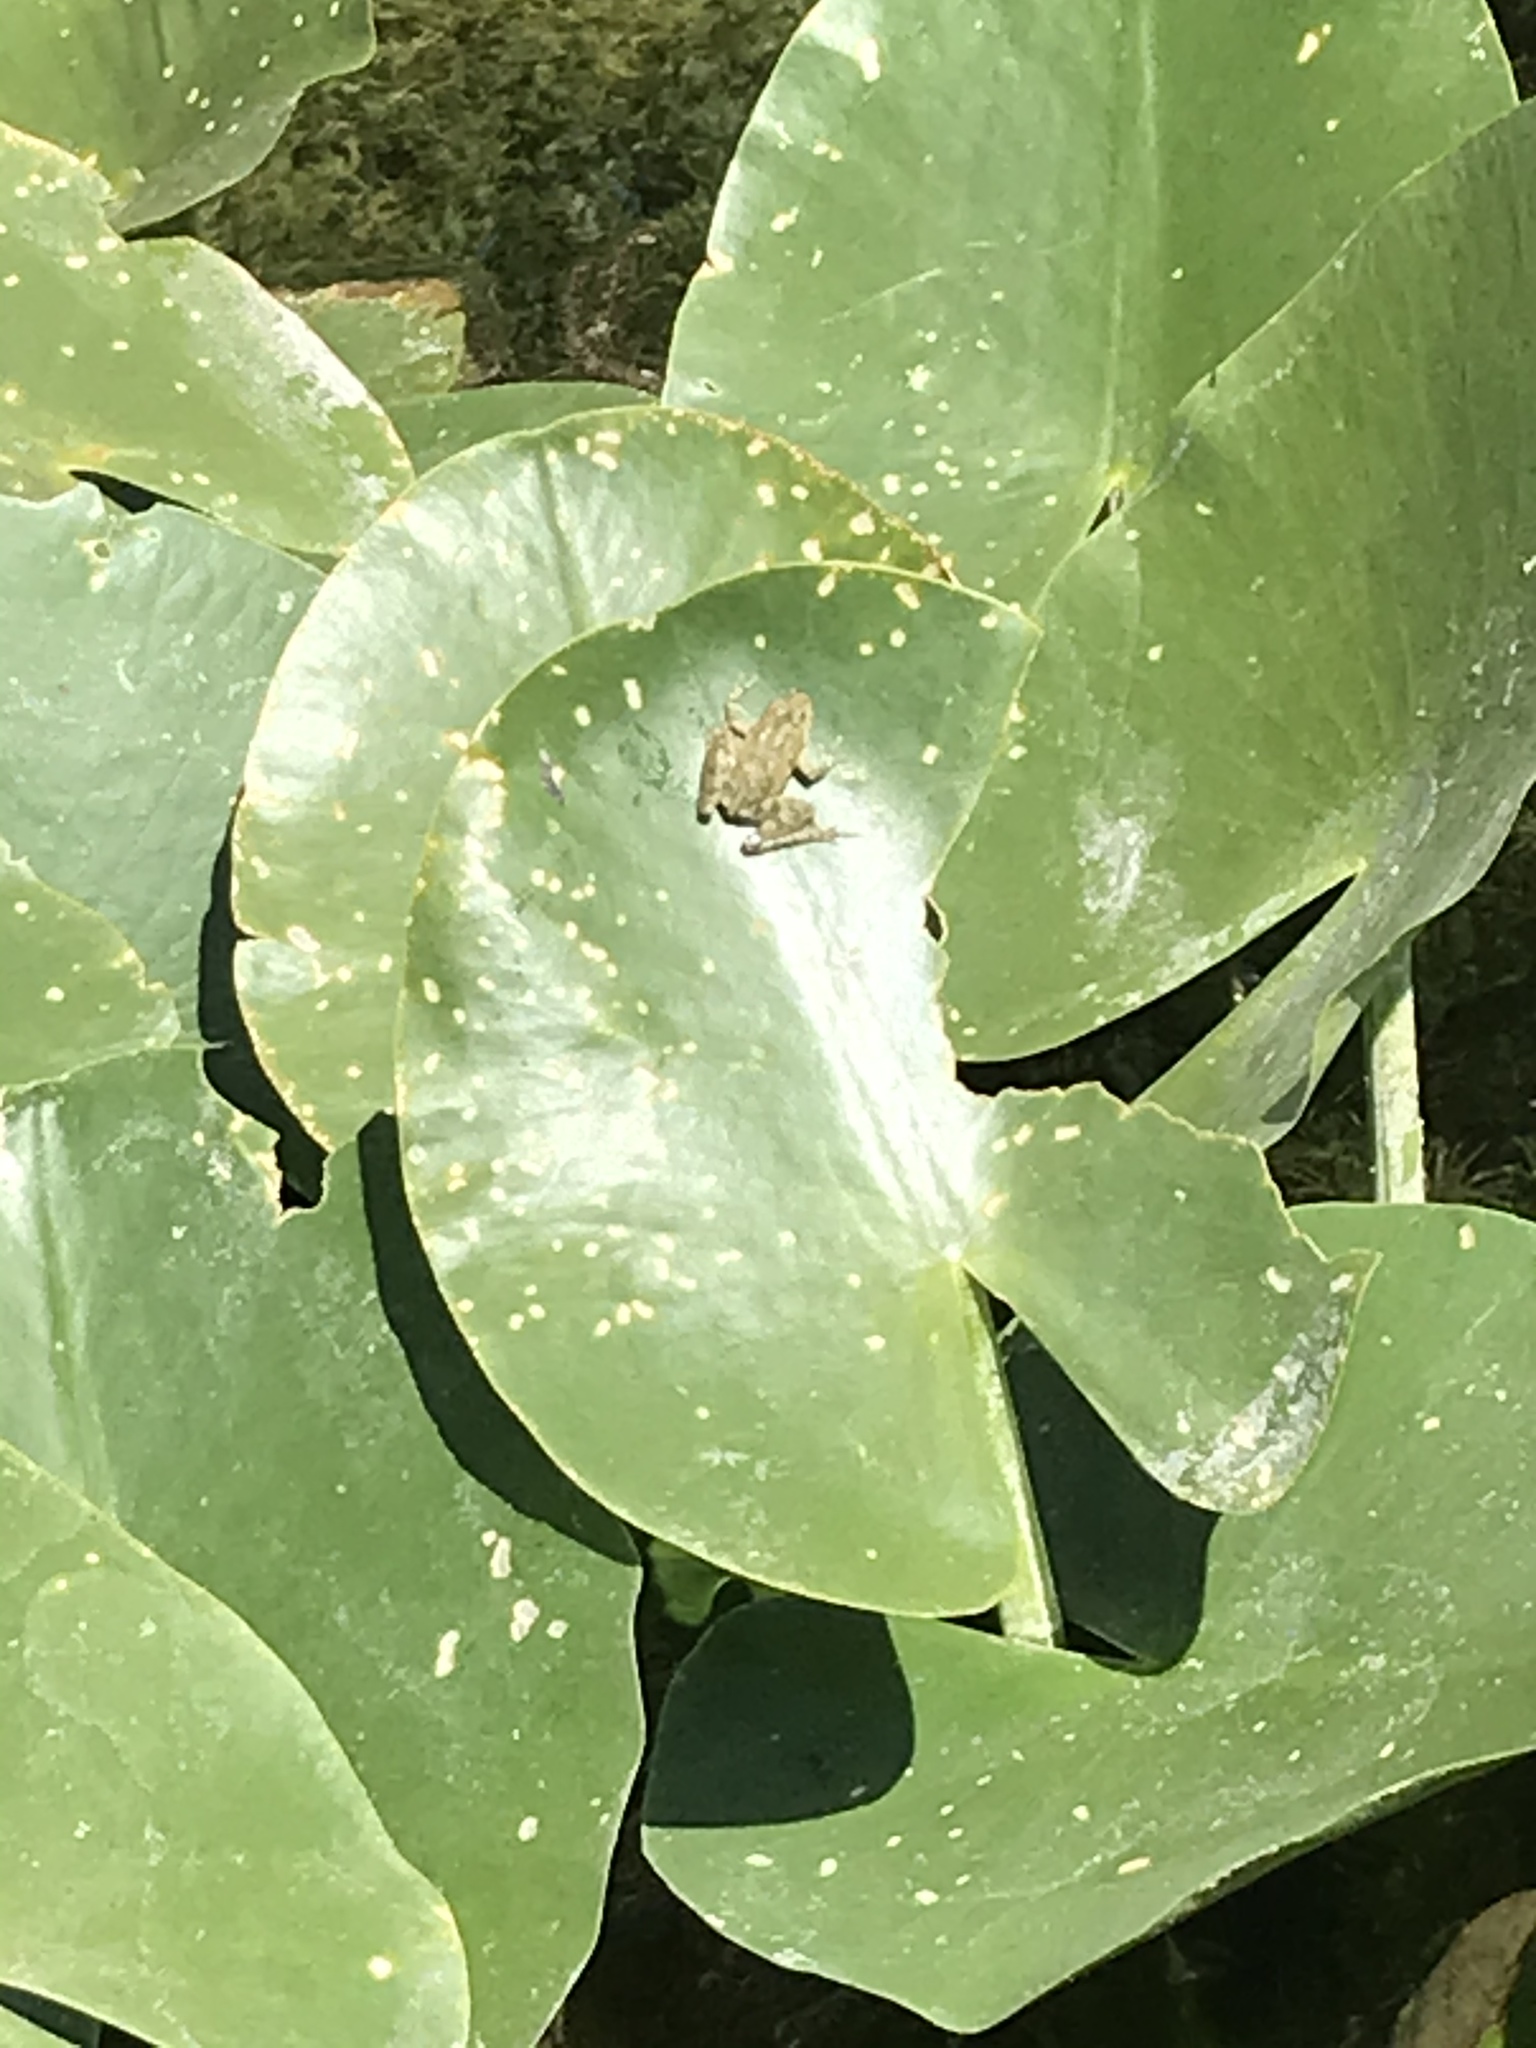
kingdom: Animalia
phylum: Chordata
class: Amphibia
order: Anura
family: Hylidae
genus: Acris
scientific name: Acris blanchardi
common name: Blanchard's cricket frog
